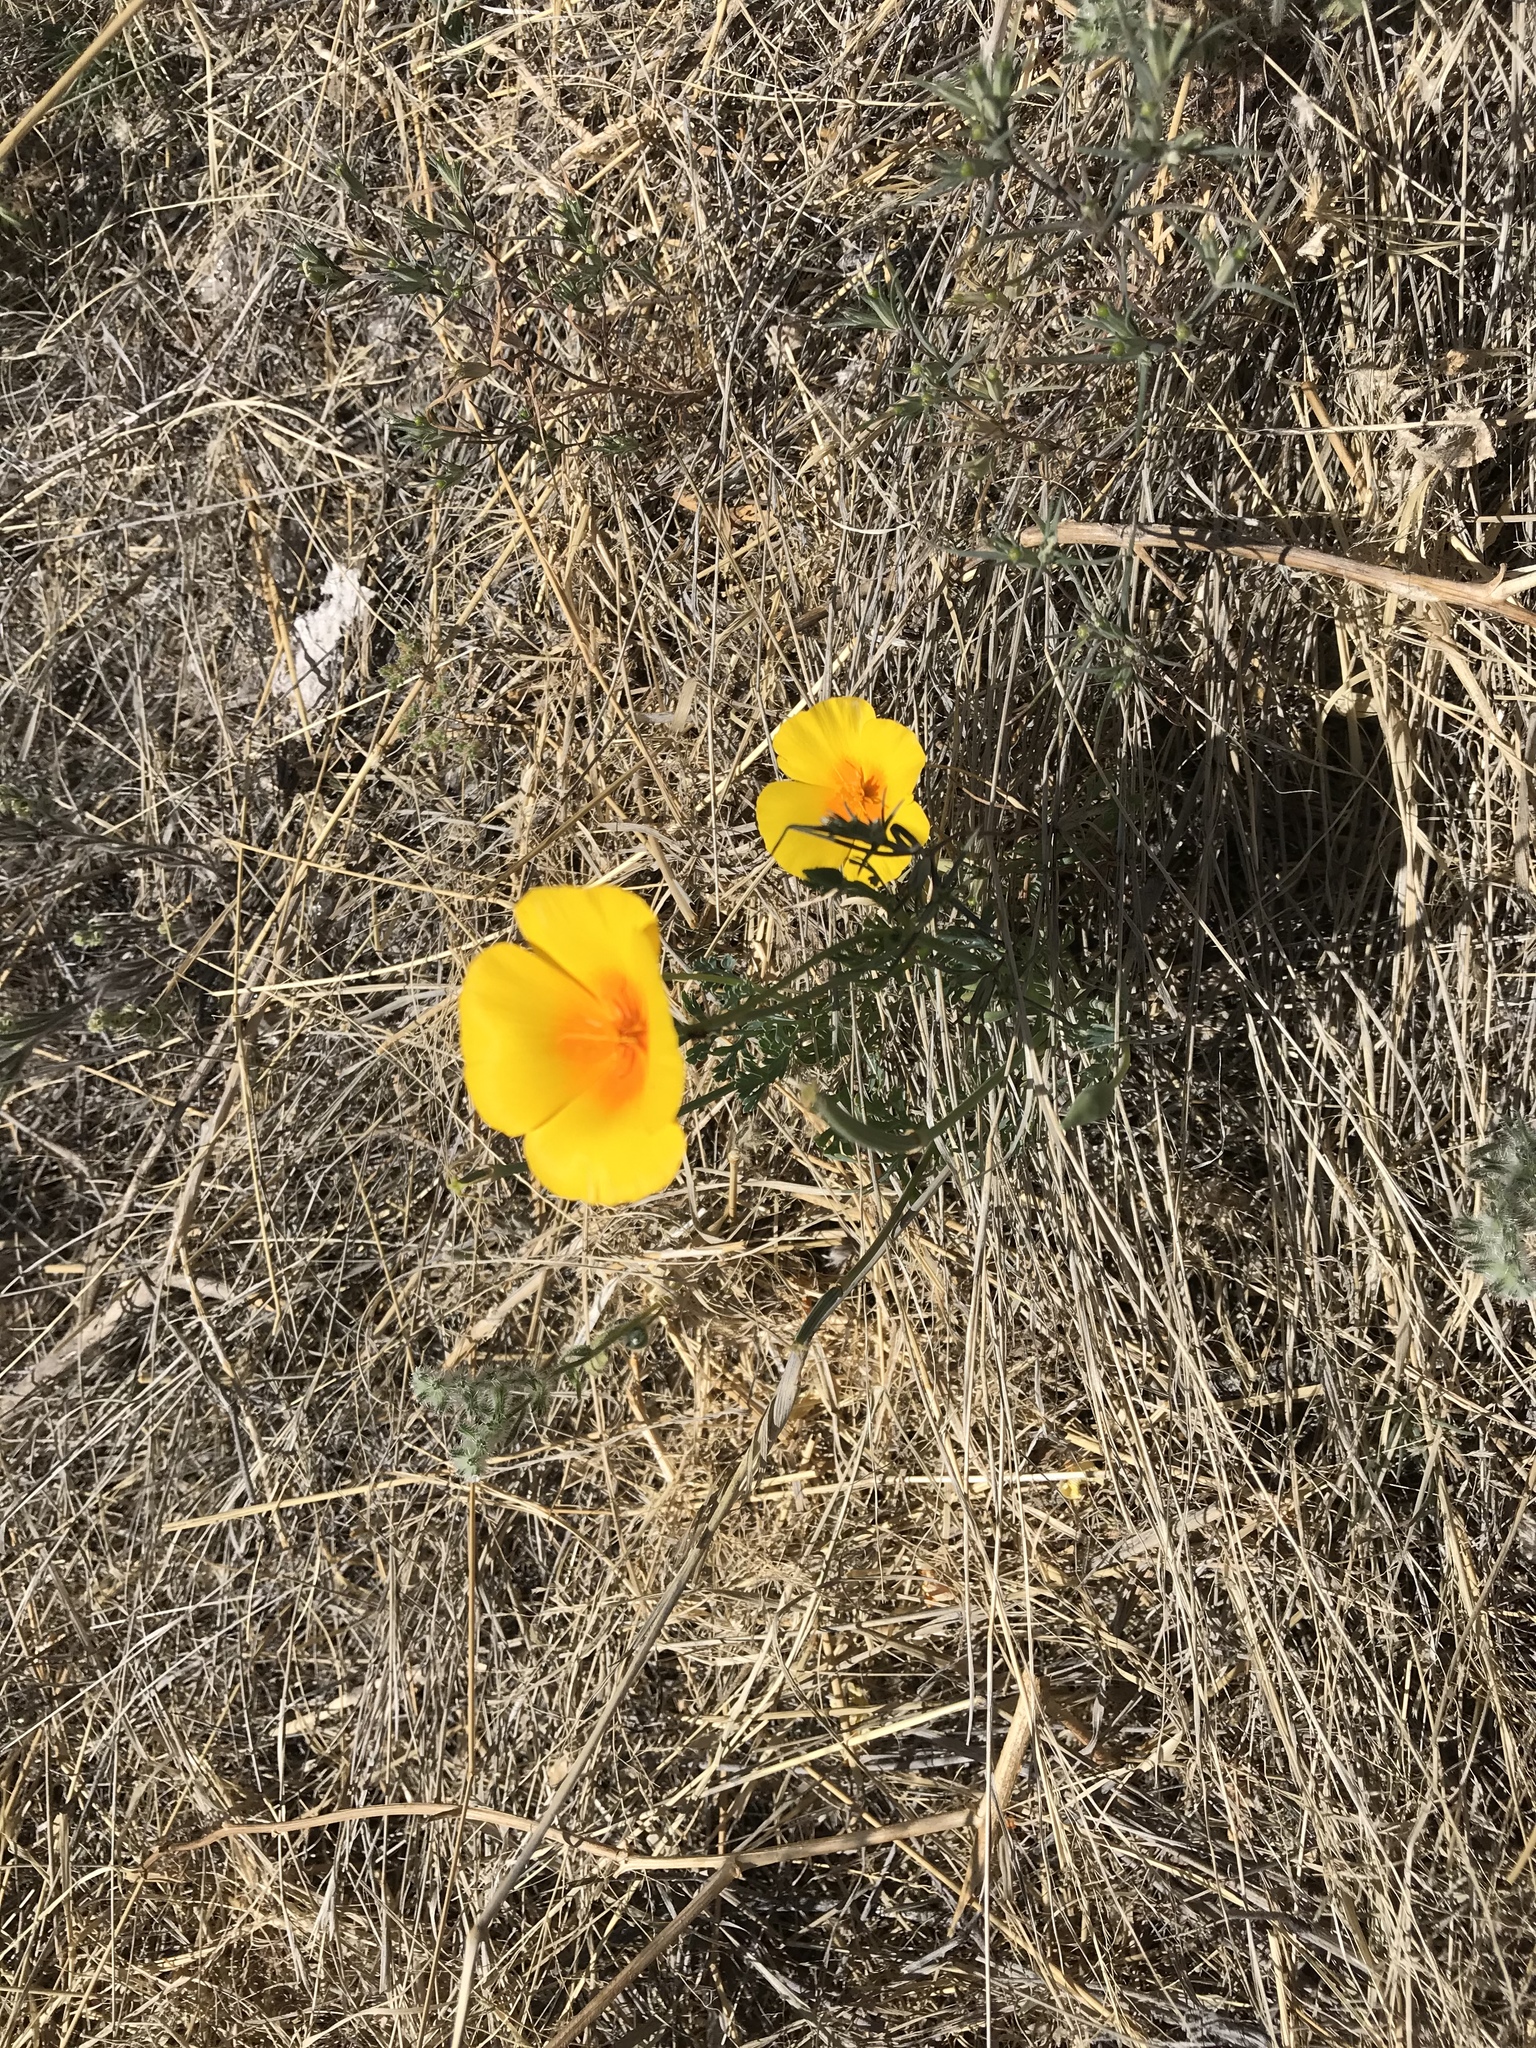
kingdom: Plantae
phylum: Tracheophyta
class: Magnoliopsida
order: Ranunculales
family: Papaveraceae
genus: Eschscholzia
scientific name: Eschscholzia californica
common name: California poppy
